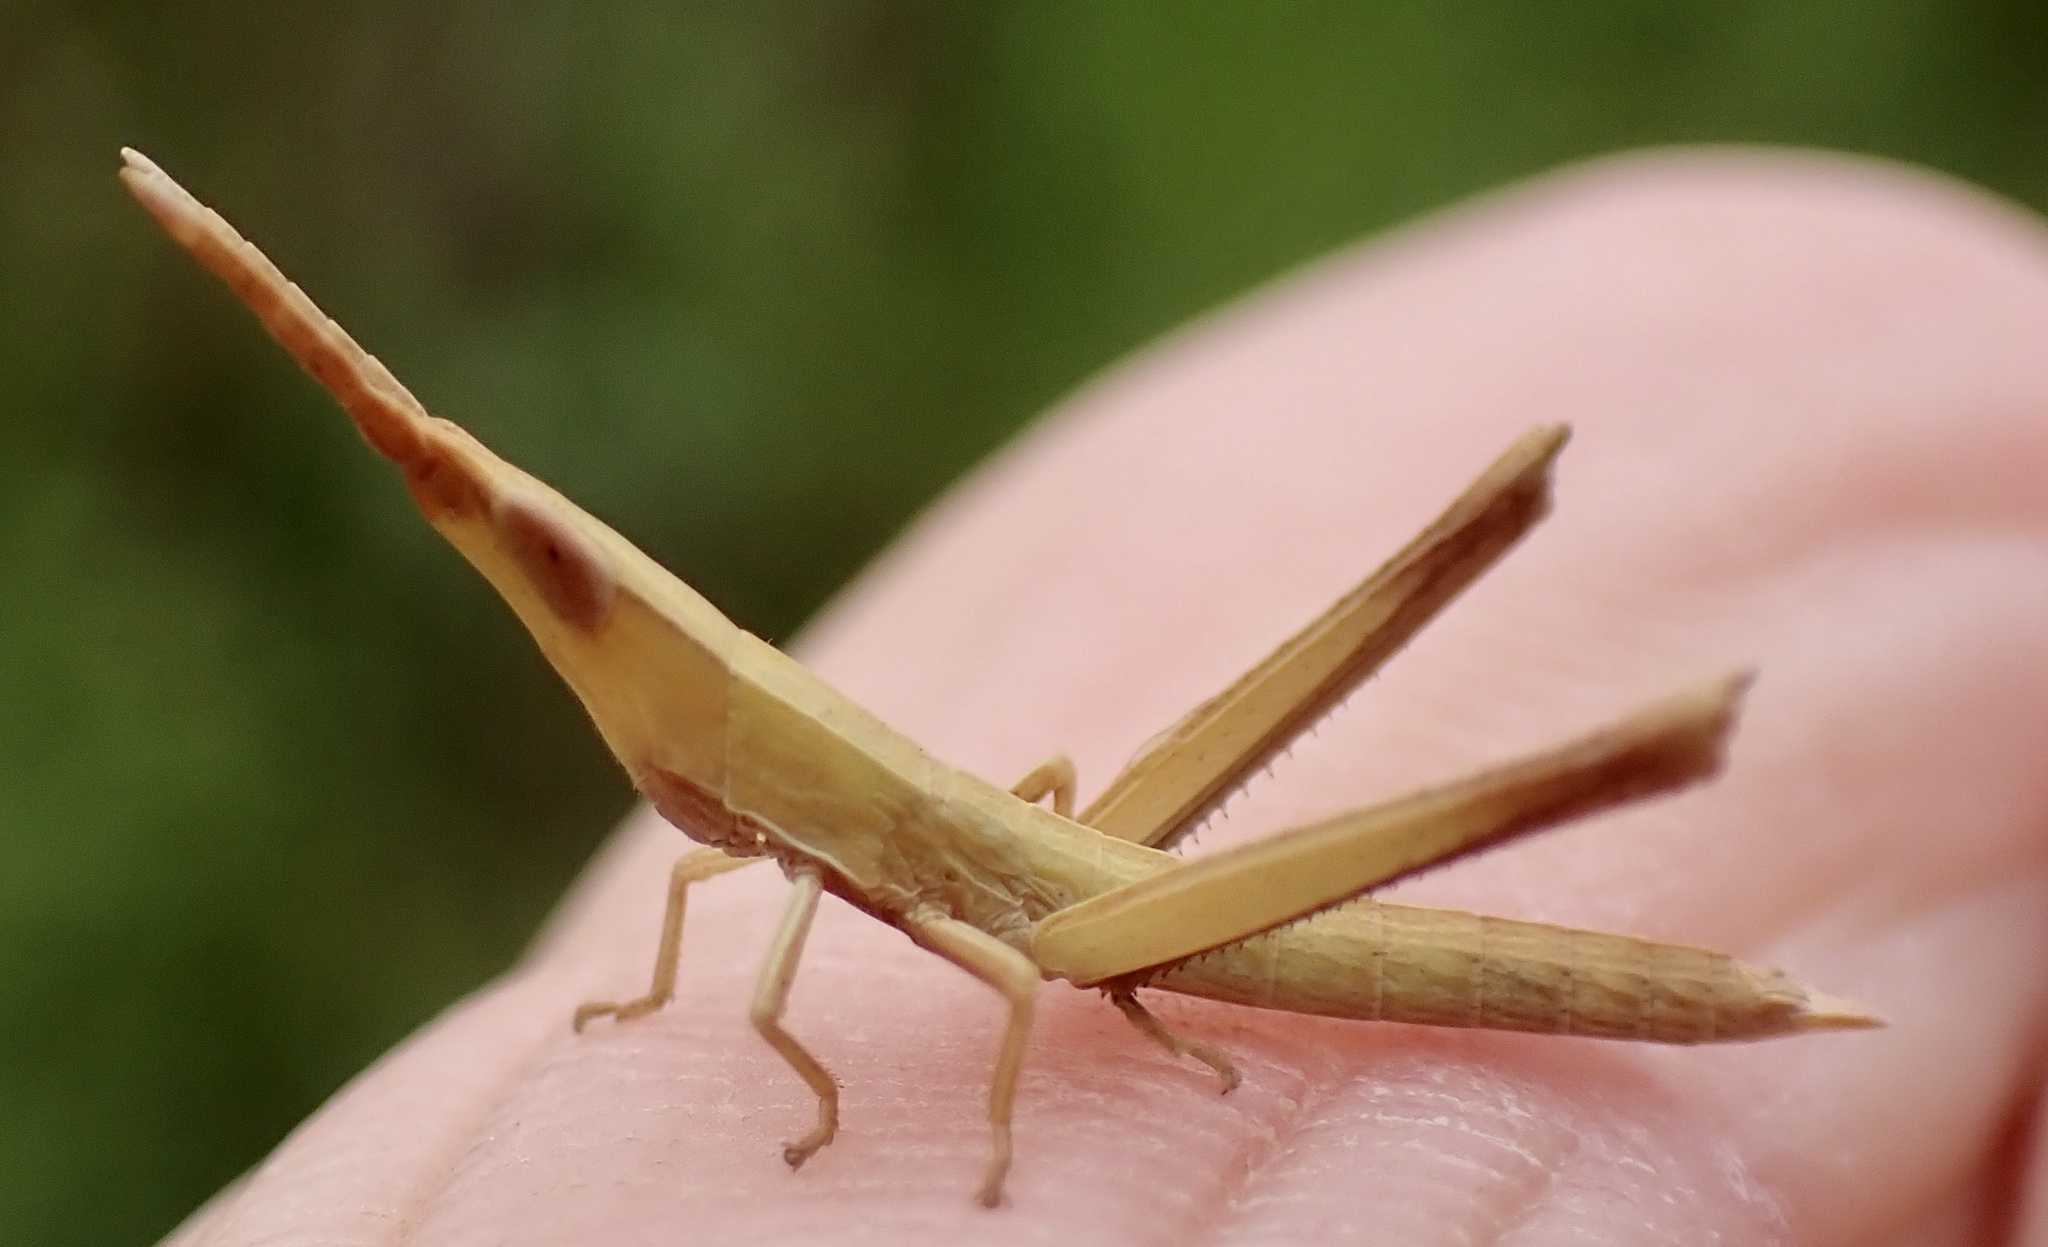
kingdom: Animalia
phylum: Arthropoda
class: Insecta
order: Orthoptera
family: Acrididae
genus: Achurum
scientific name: Achurum carinatum
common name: Long-headed toothpick grasshopper
